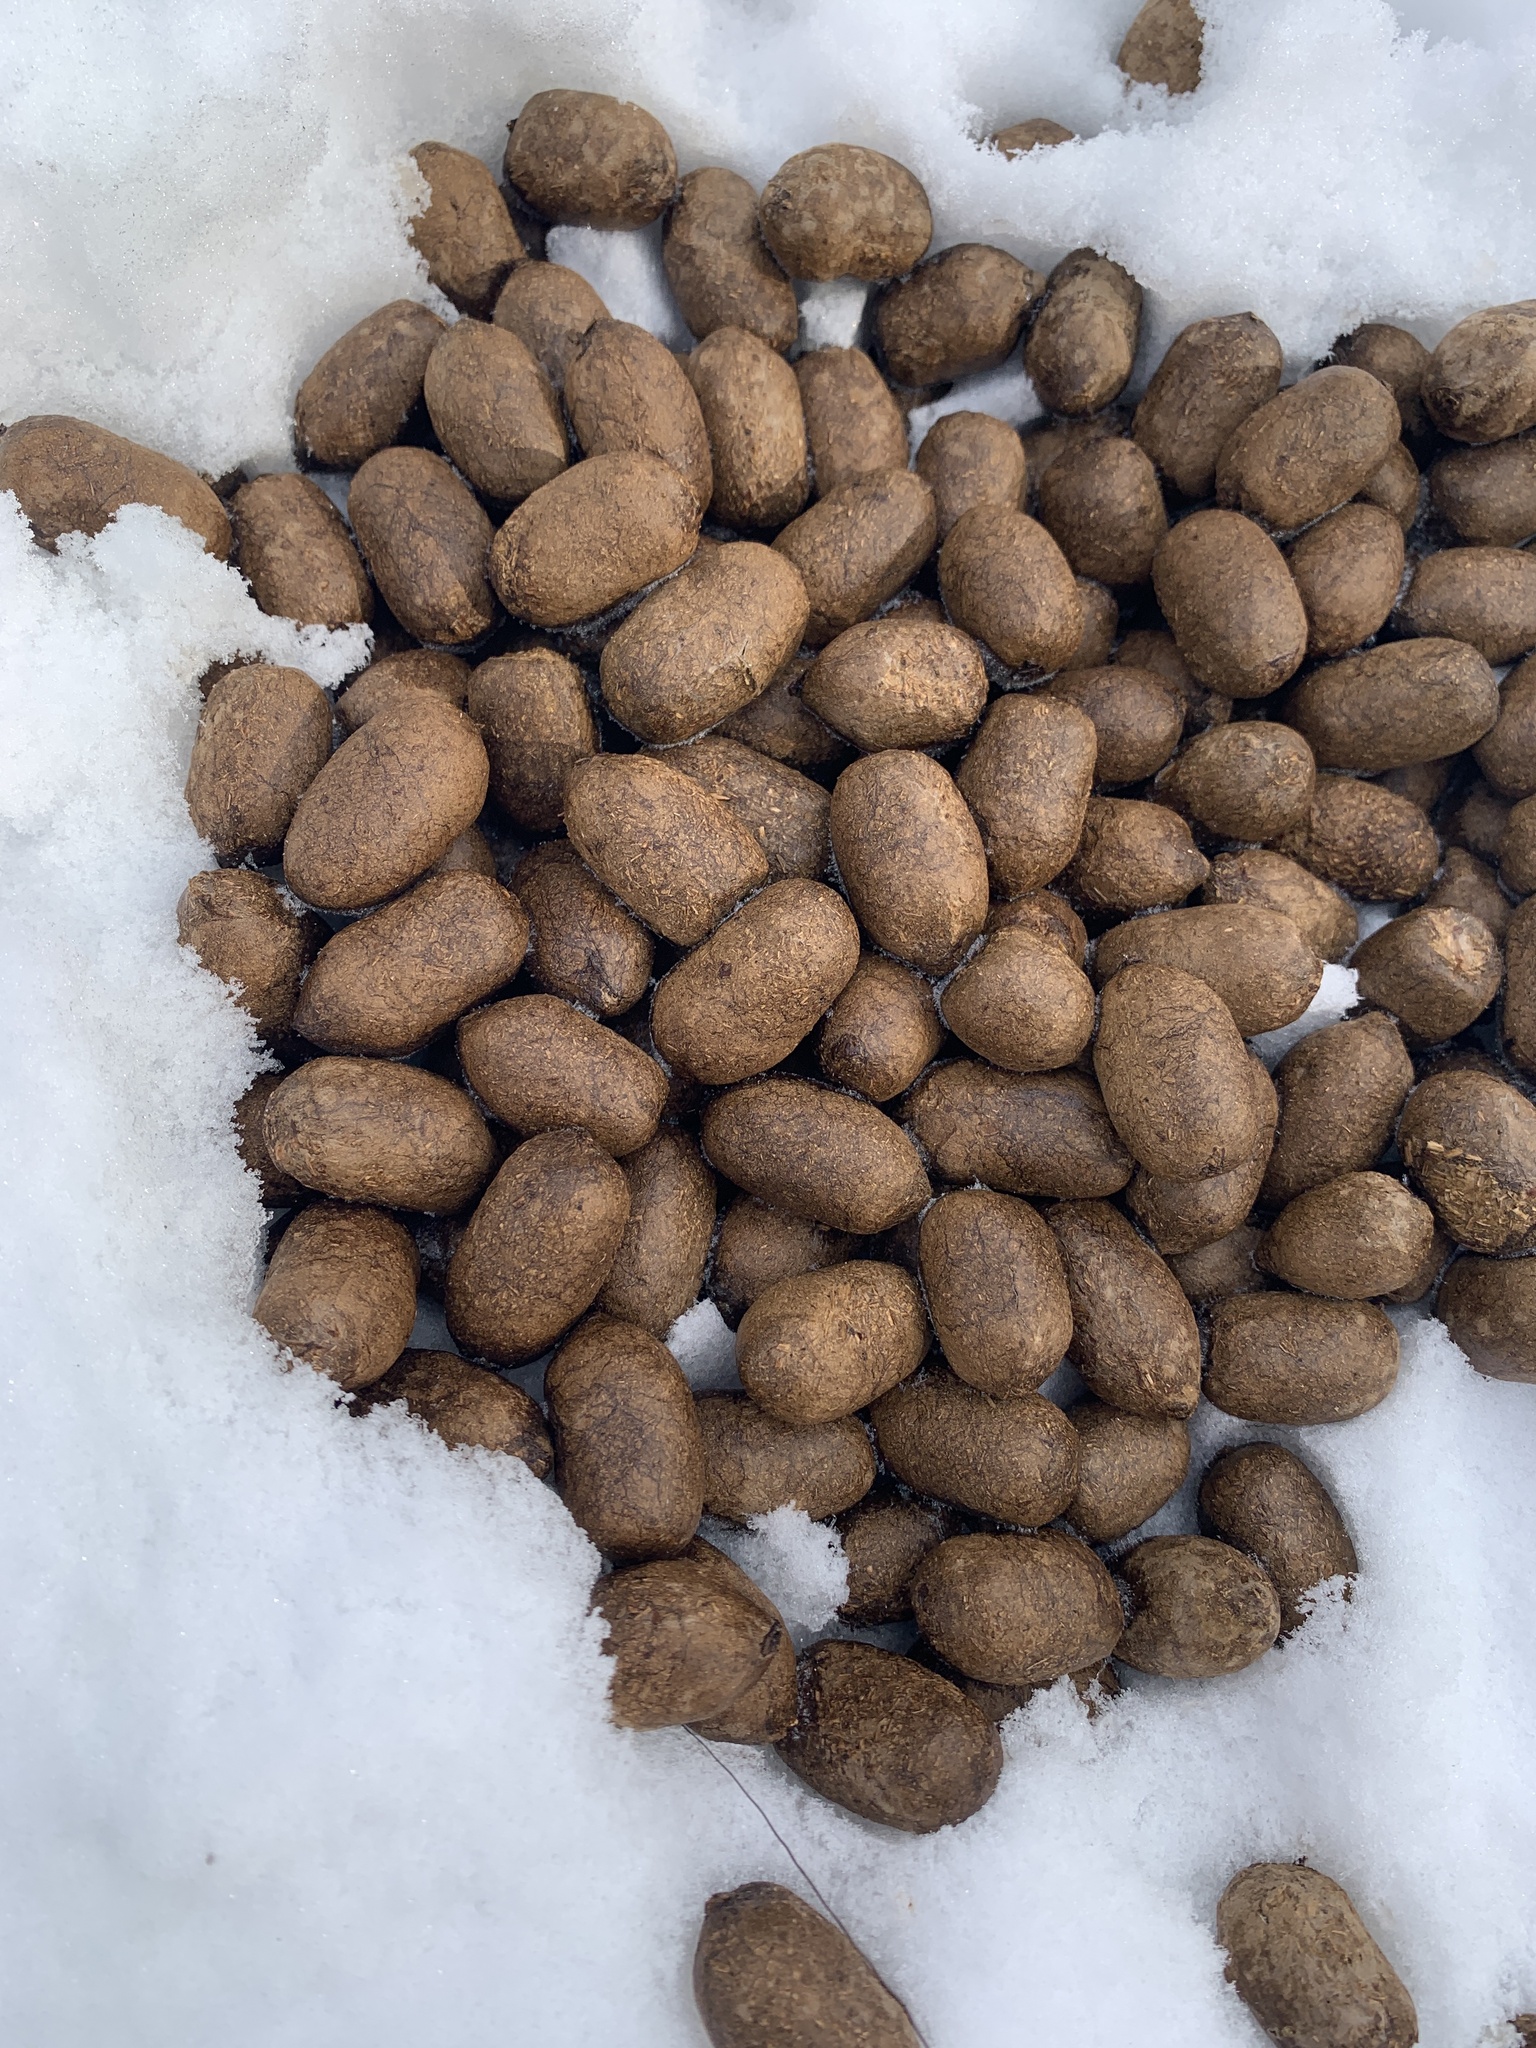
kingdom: Animalia
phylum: Chordata
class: Mammalia
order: Artiodactyla
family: Cervidae
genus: Alces
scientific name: Alces alces
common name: Moose
